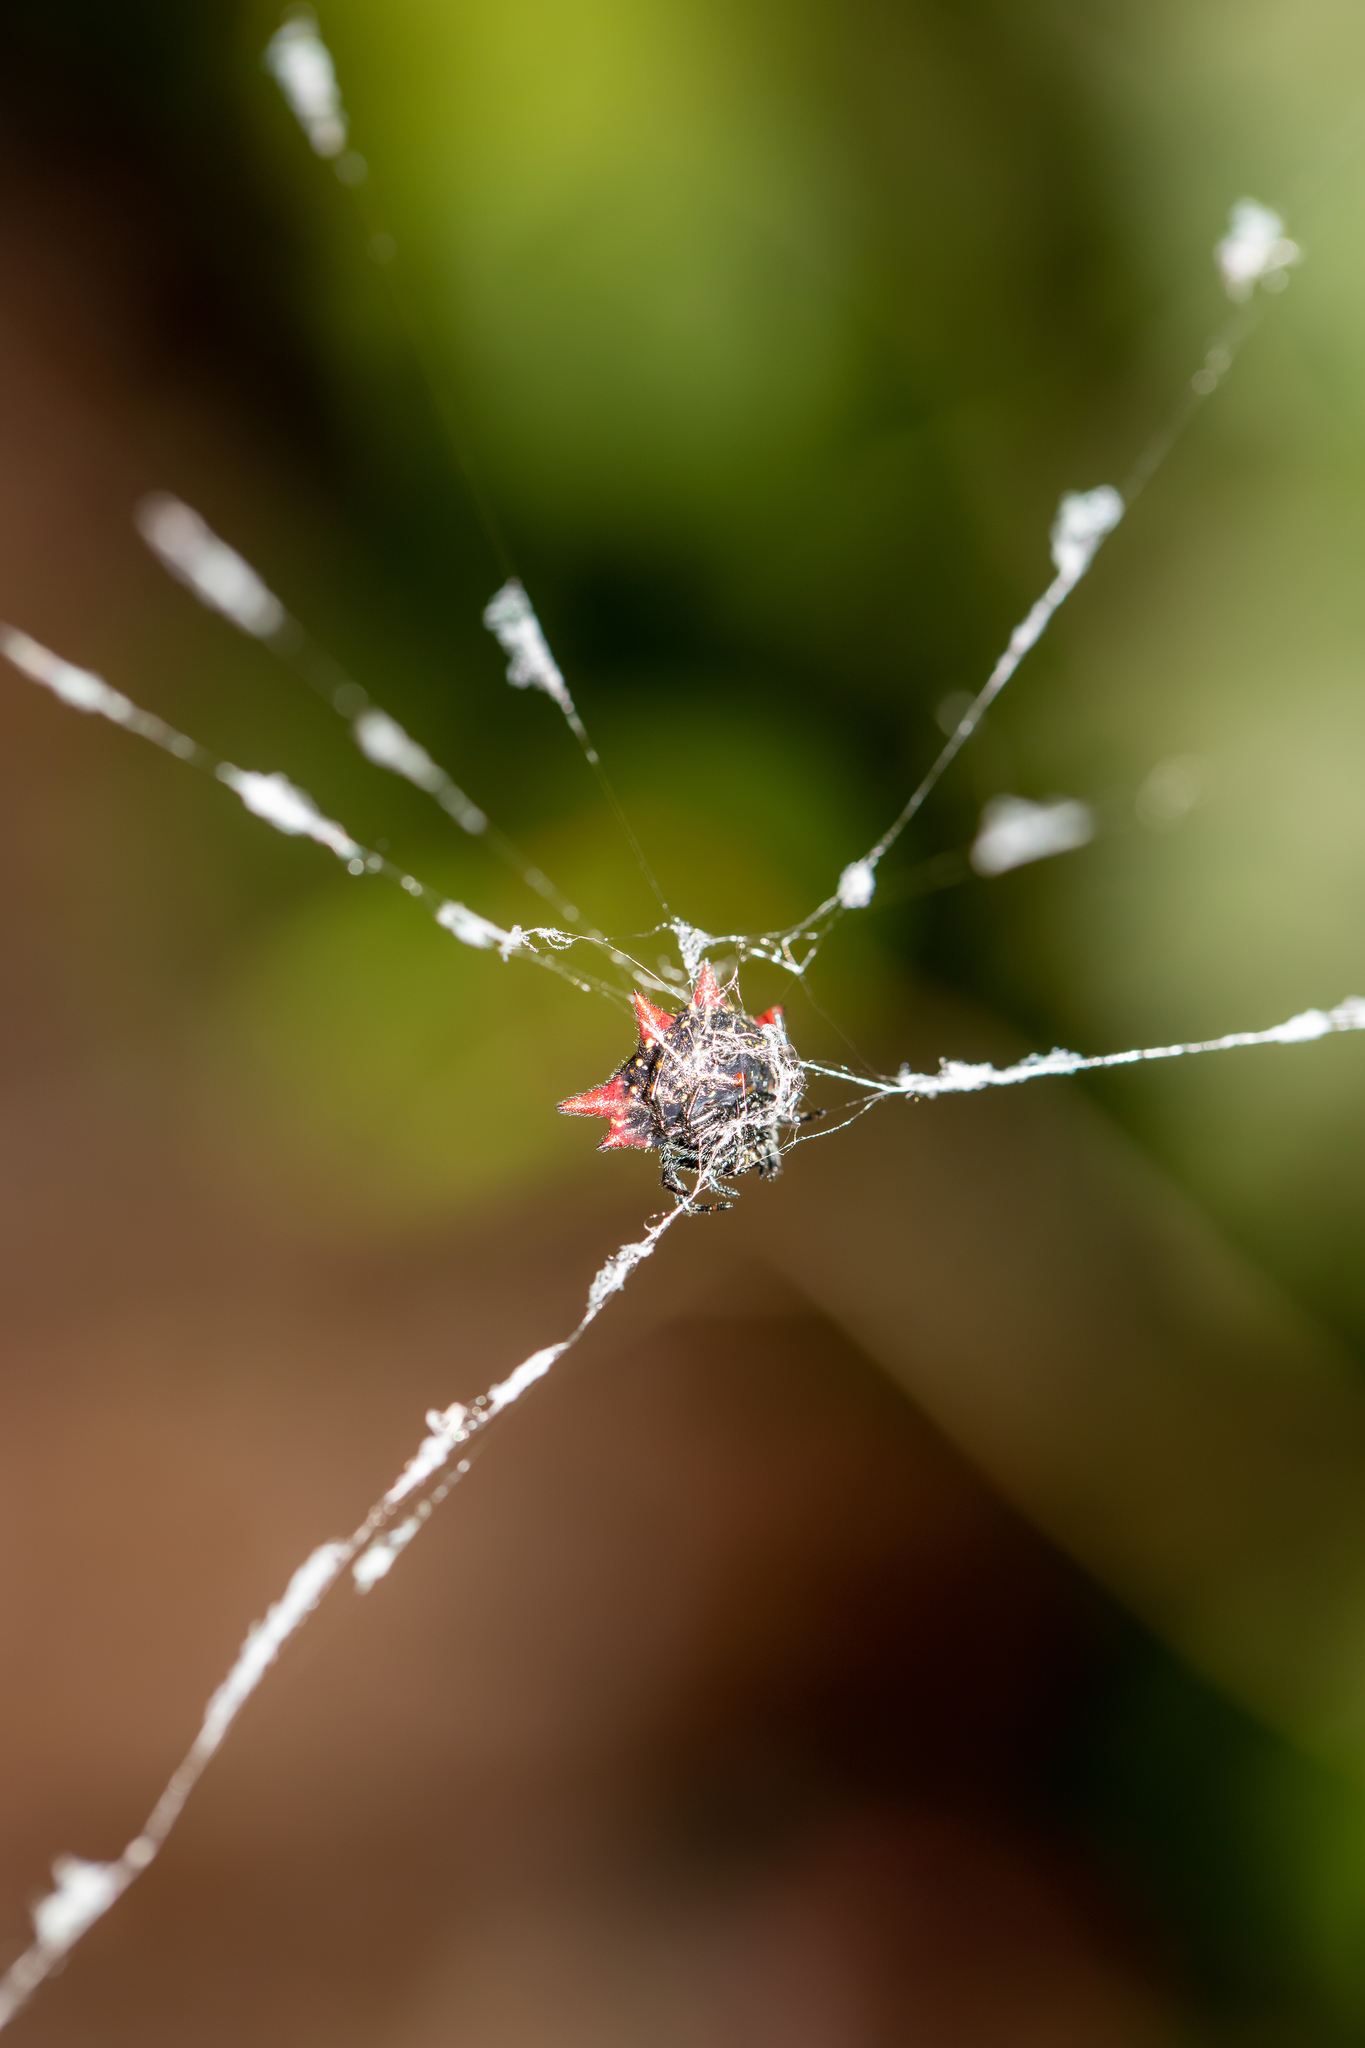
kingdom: Animalia
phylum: Arthropoda
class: Arachnida
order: Araneae
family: Araneidae
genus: Gasteracantha
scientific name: Gasteracantha cancriformis
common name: Orb weavers
